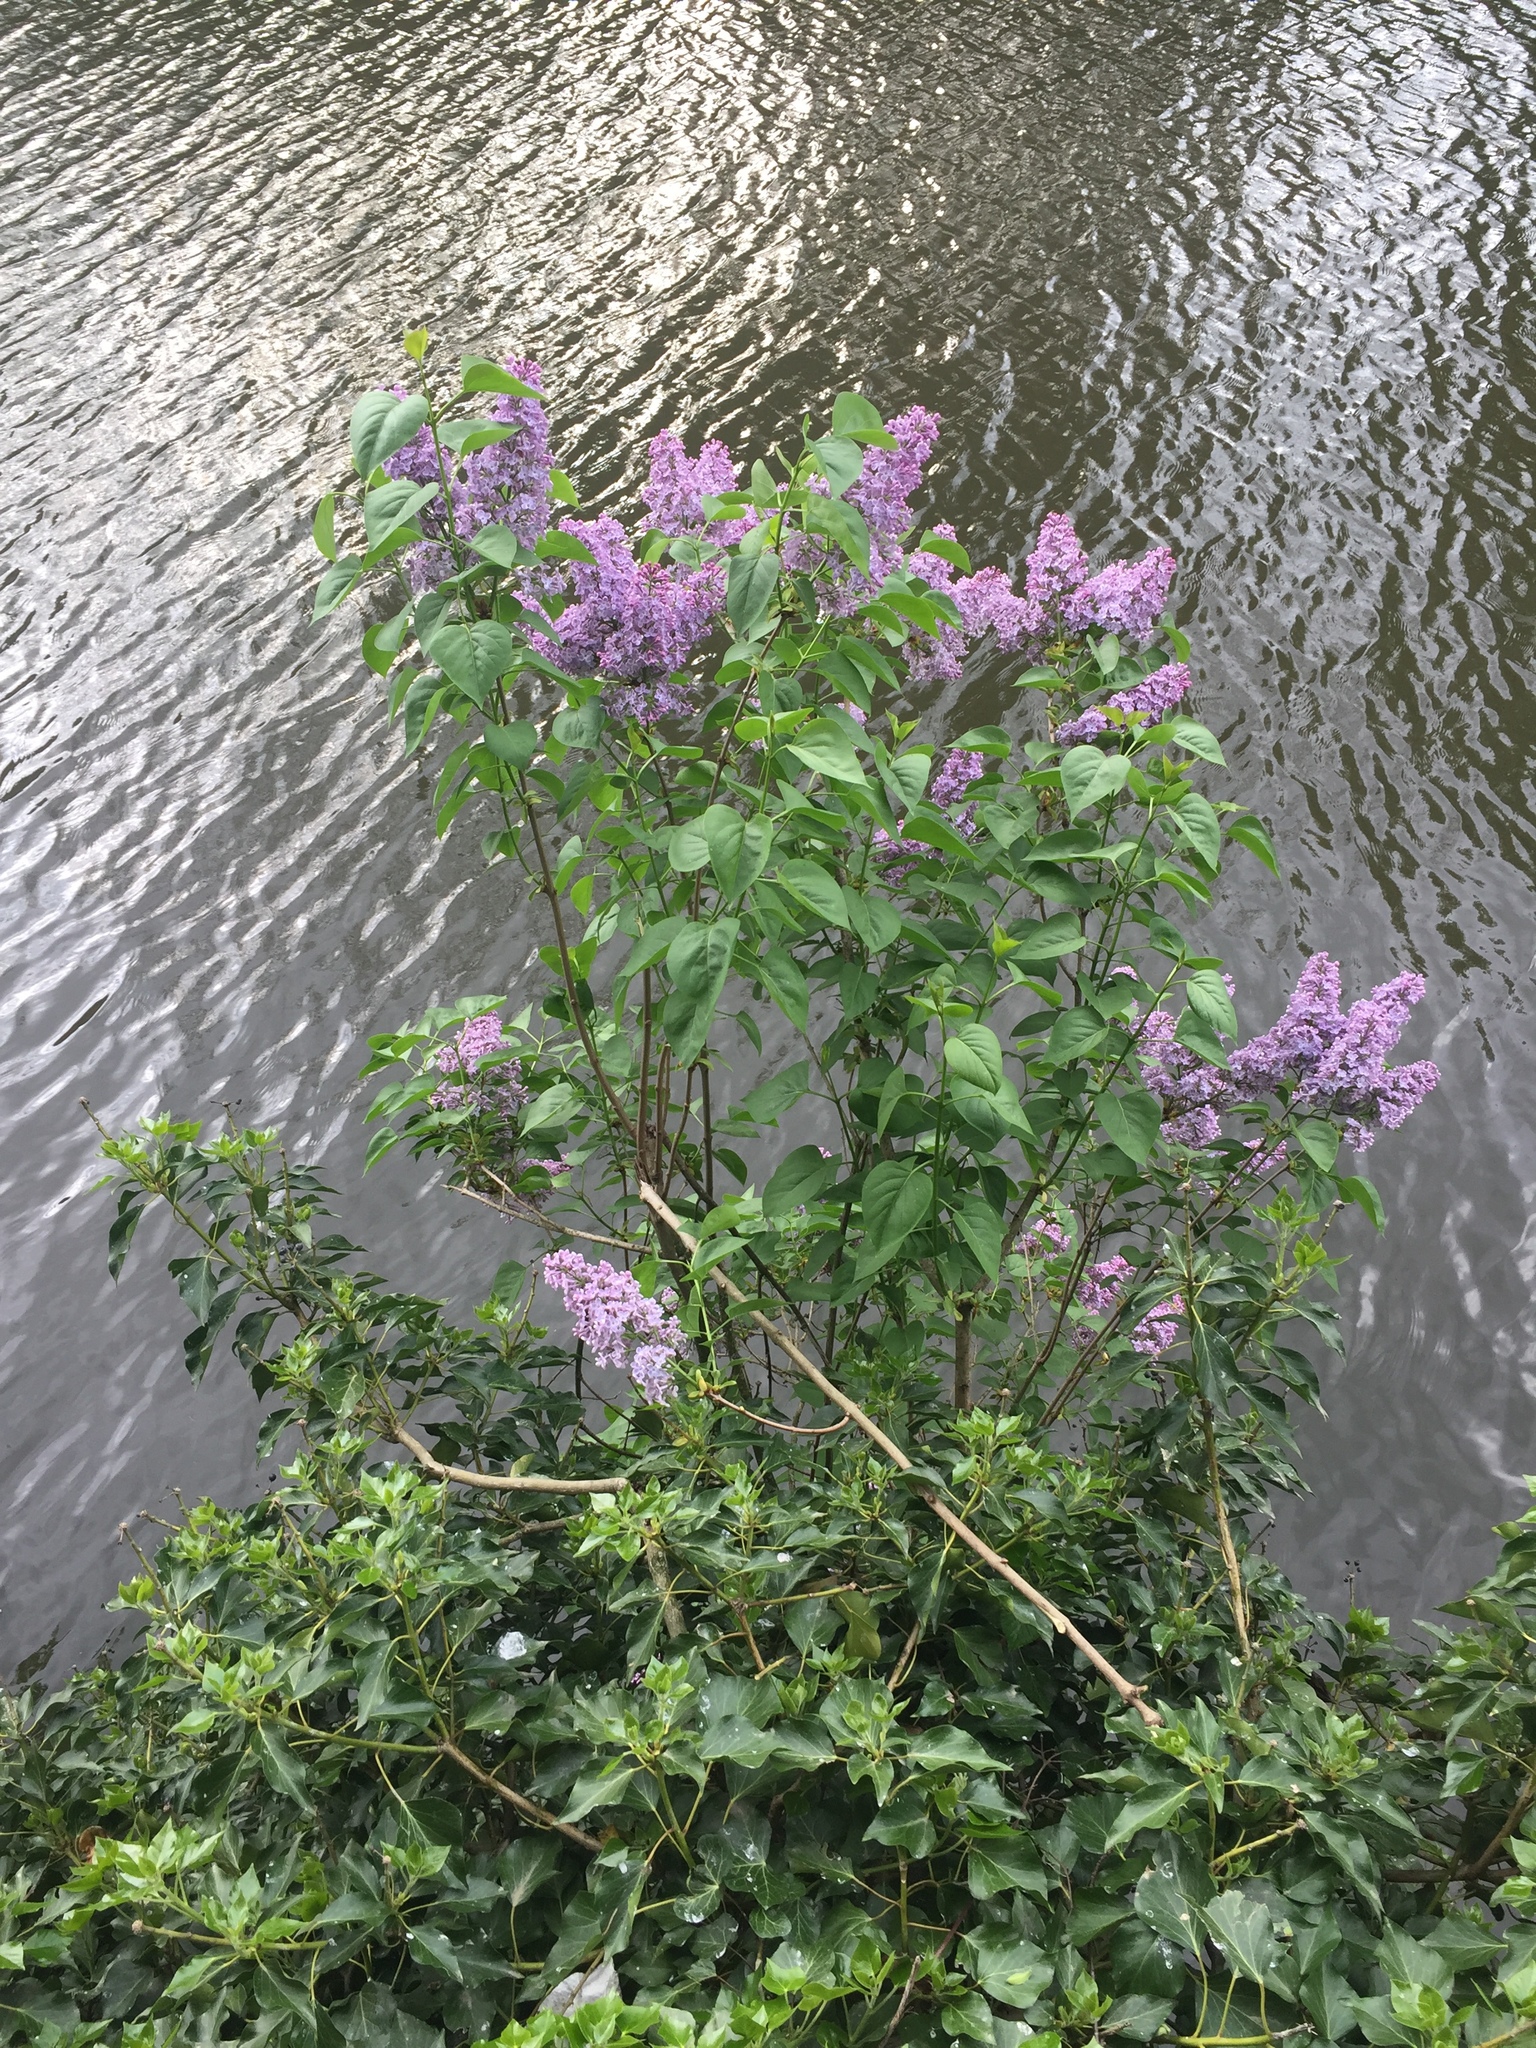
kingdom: Plantae
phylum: Tracheophyta
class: Magnoliopsida
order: Lamiales
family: Oleaceae
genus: Syringa
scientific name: Syringa vulgaris
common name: Common lilac
